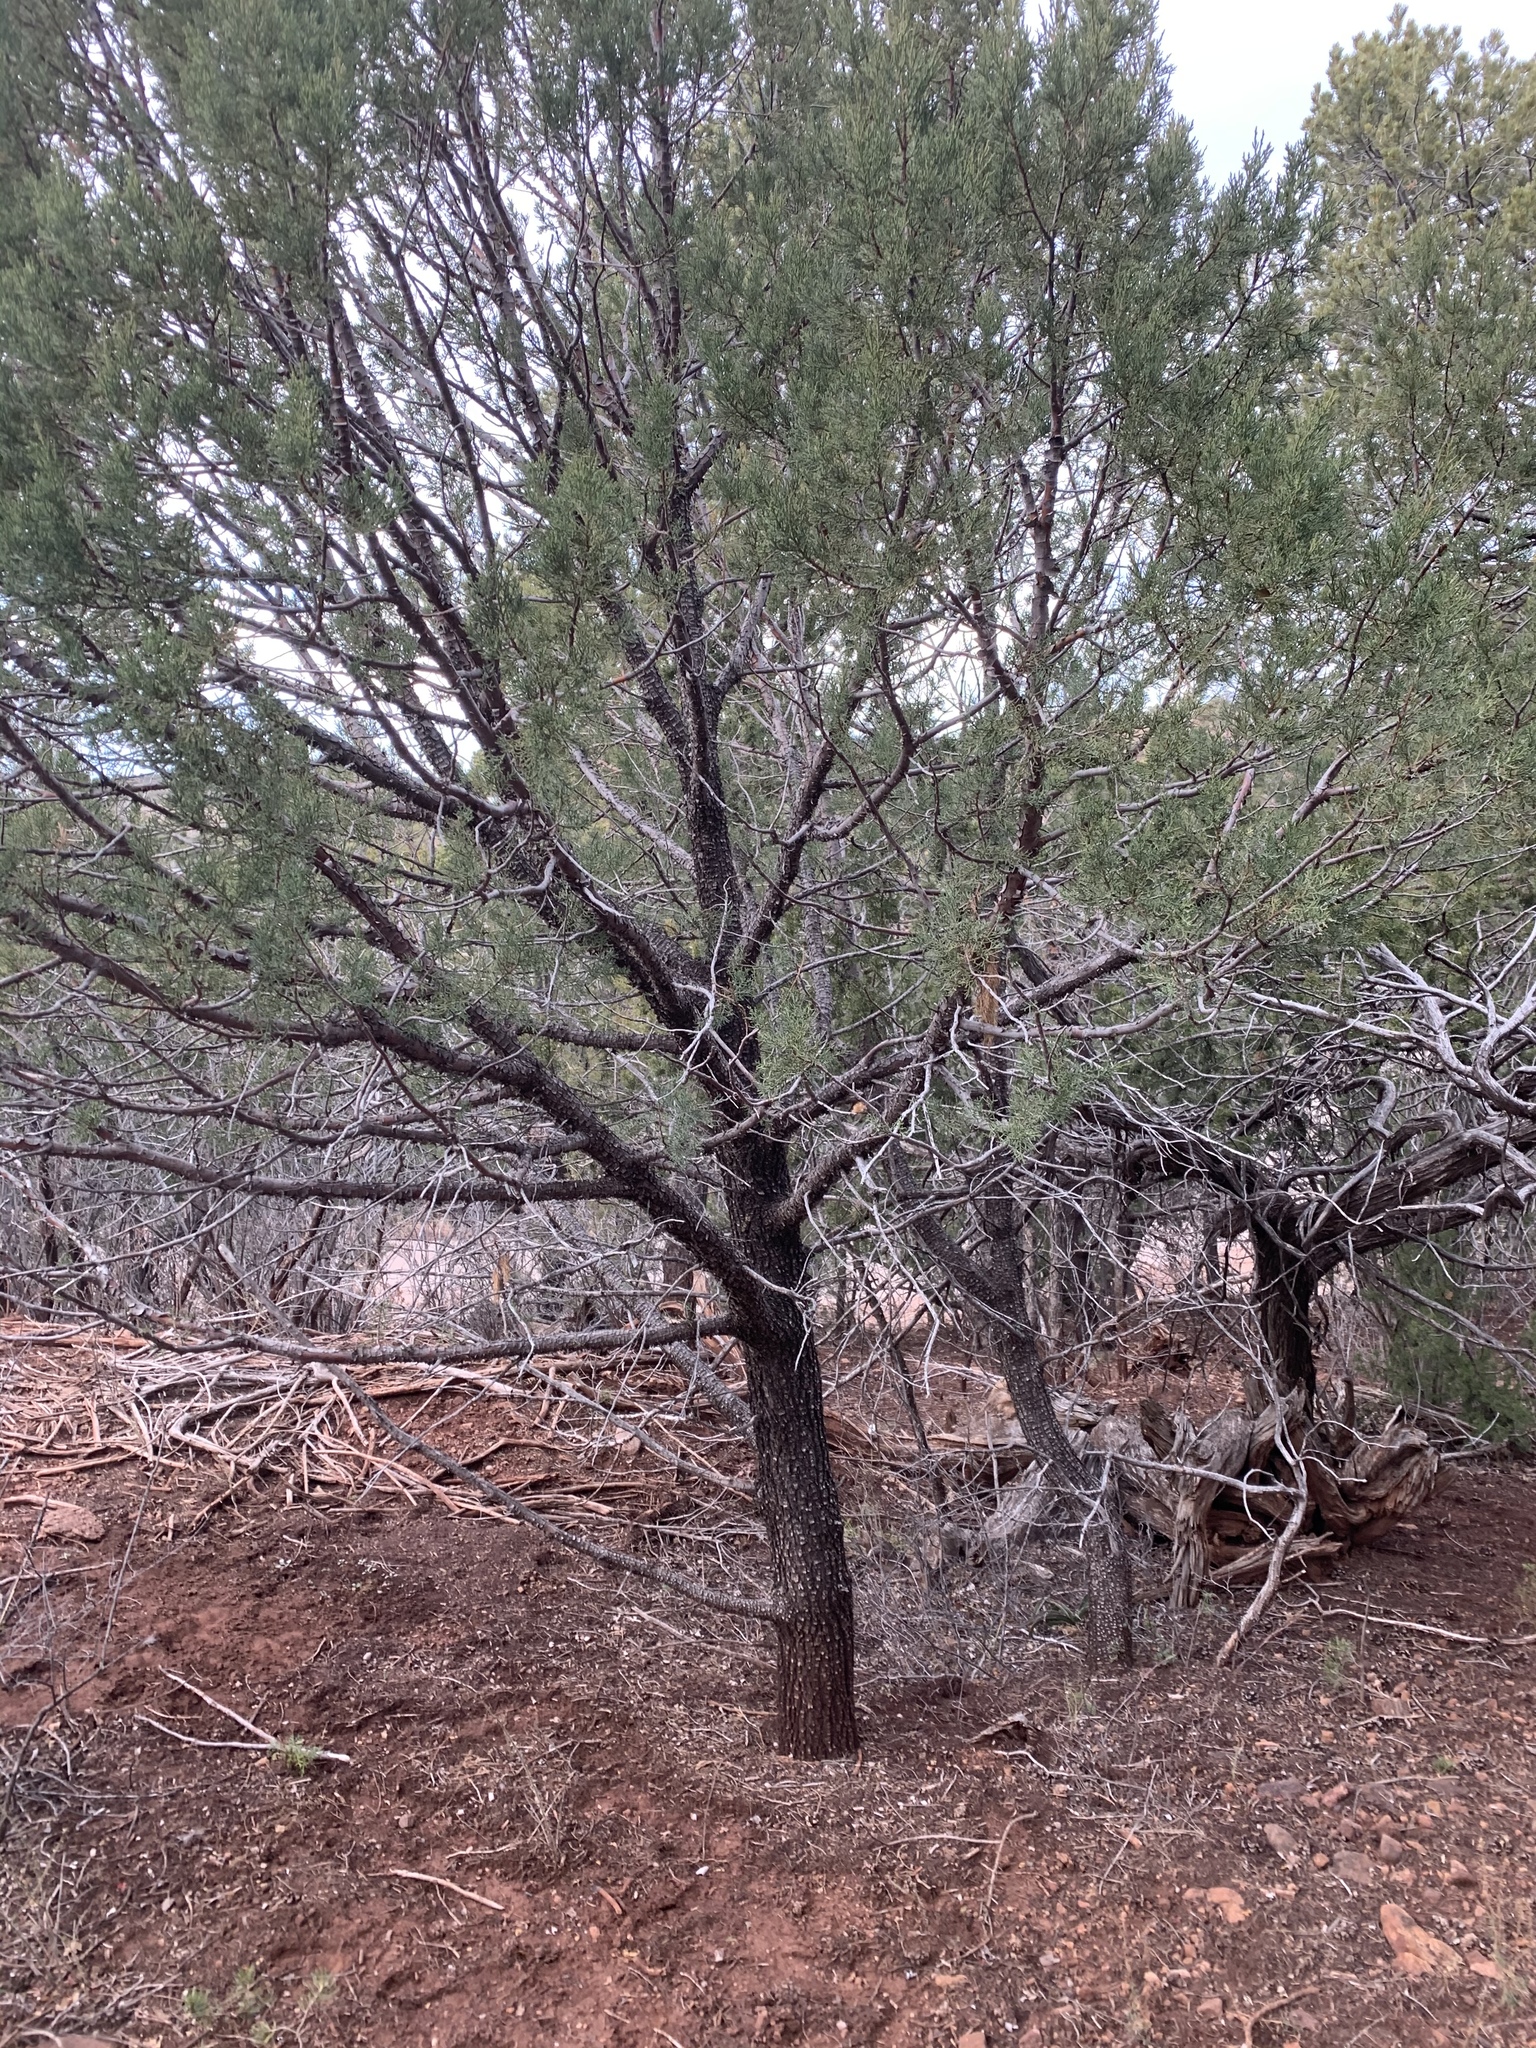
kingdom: Plantae
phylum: Tracheophyta
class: Pinopsida
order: Pinales
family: Cupressaceae
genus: Juniperus
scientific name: Juniperus deppeana
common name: Alligator juniper
